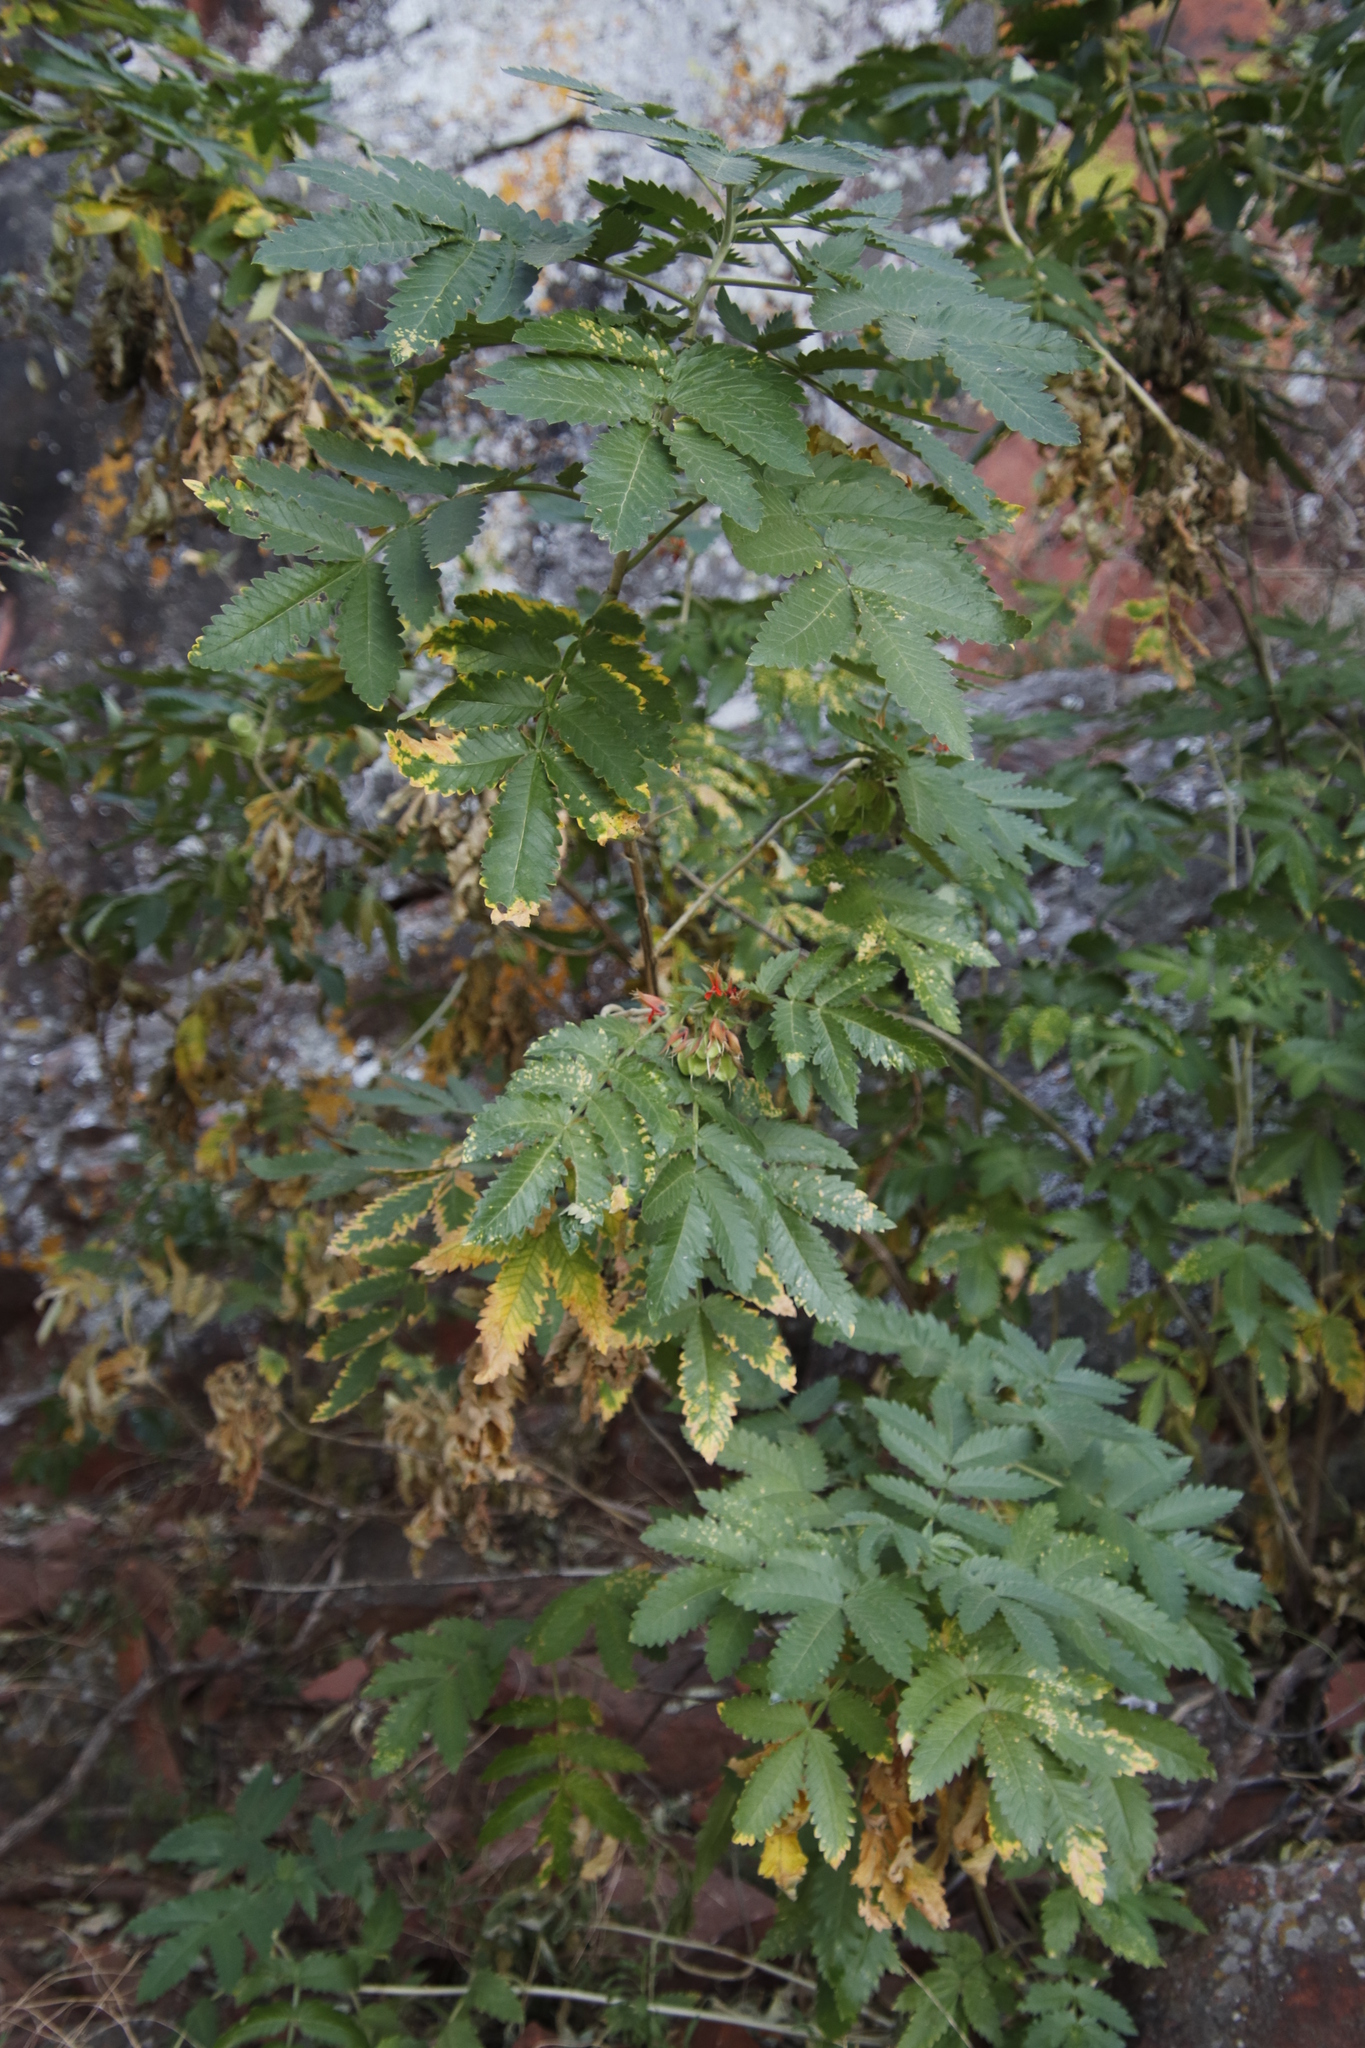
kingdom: Plantae
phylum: Tracheophyta
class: Magnoliopsida
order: Geraniales
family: Melianthaceae
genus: Melianthus
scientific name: Melianthus comosus
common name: Touch-me-not
